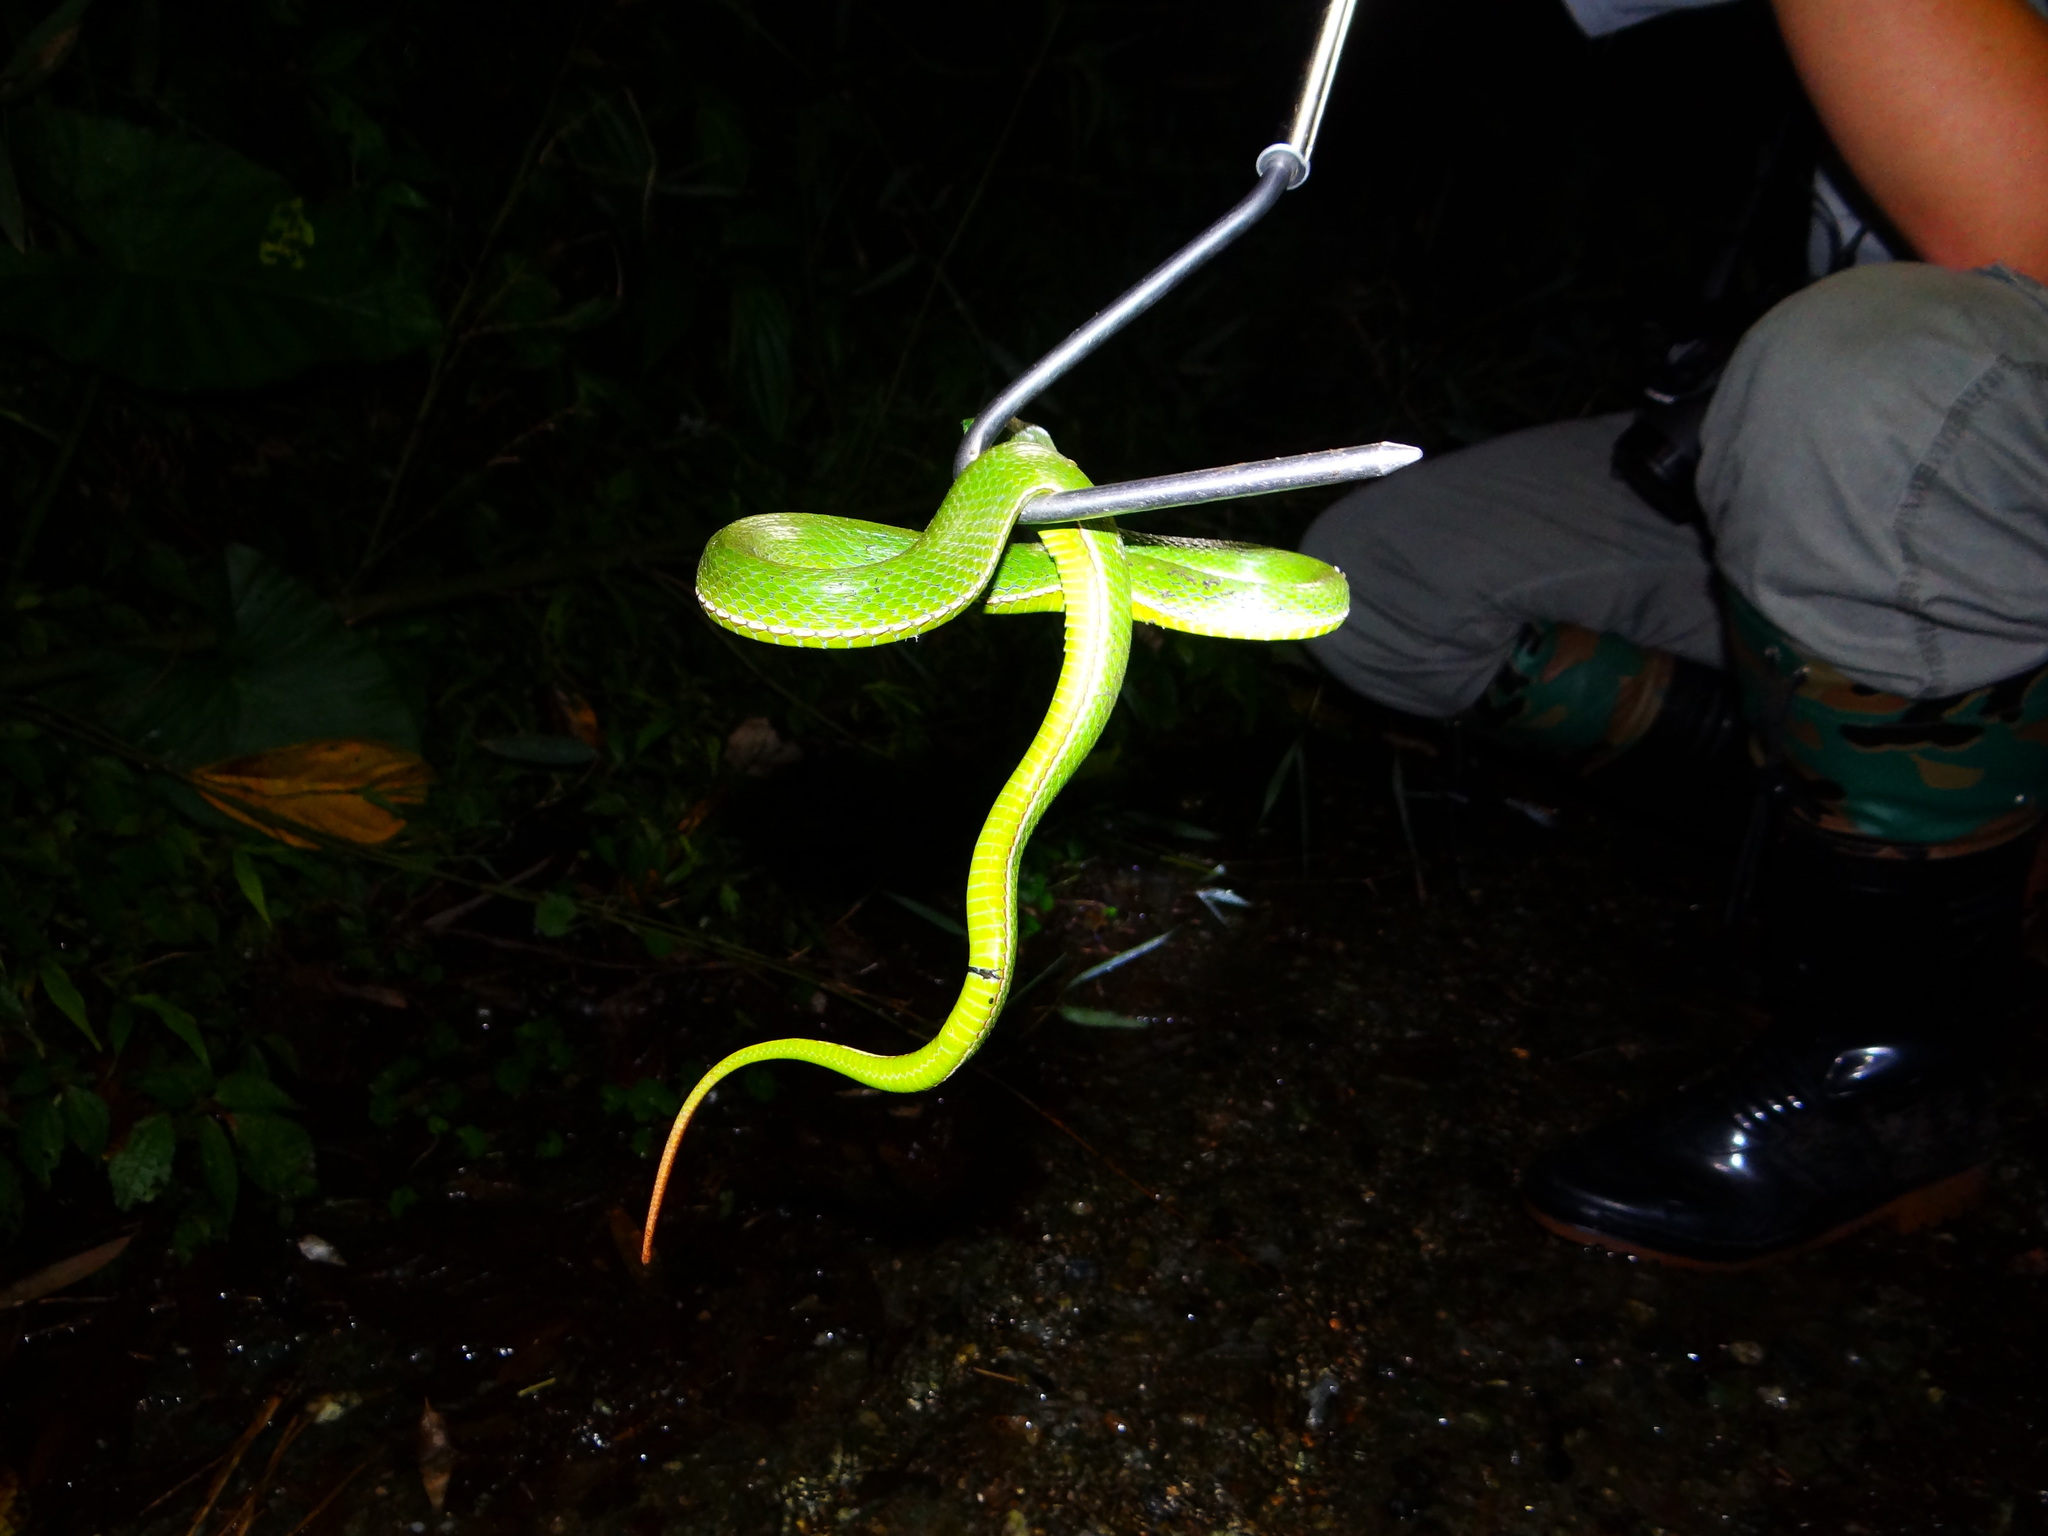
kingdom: Animalia
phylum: Chordata
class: Squamata
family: Viperidae
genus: Trimeresurus
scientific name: Trimeresurus stejnegeri
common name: Chen’s bamboo pit viper
